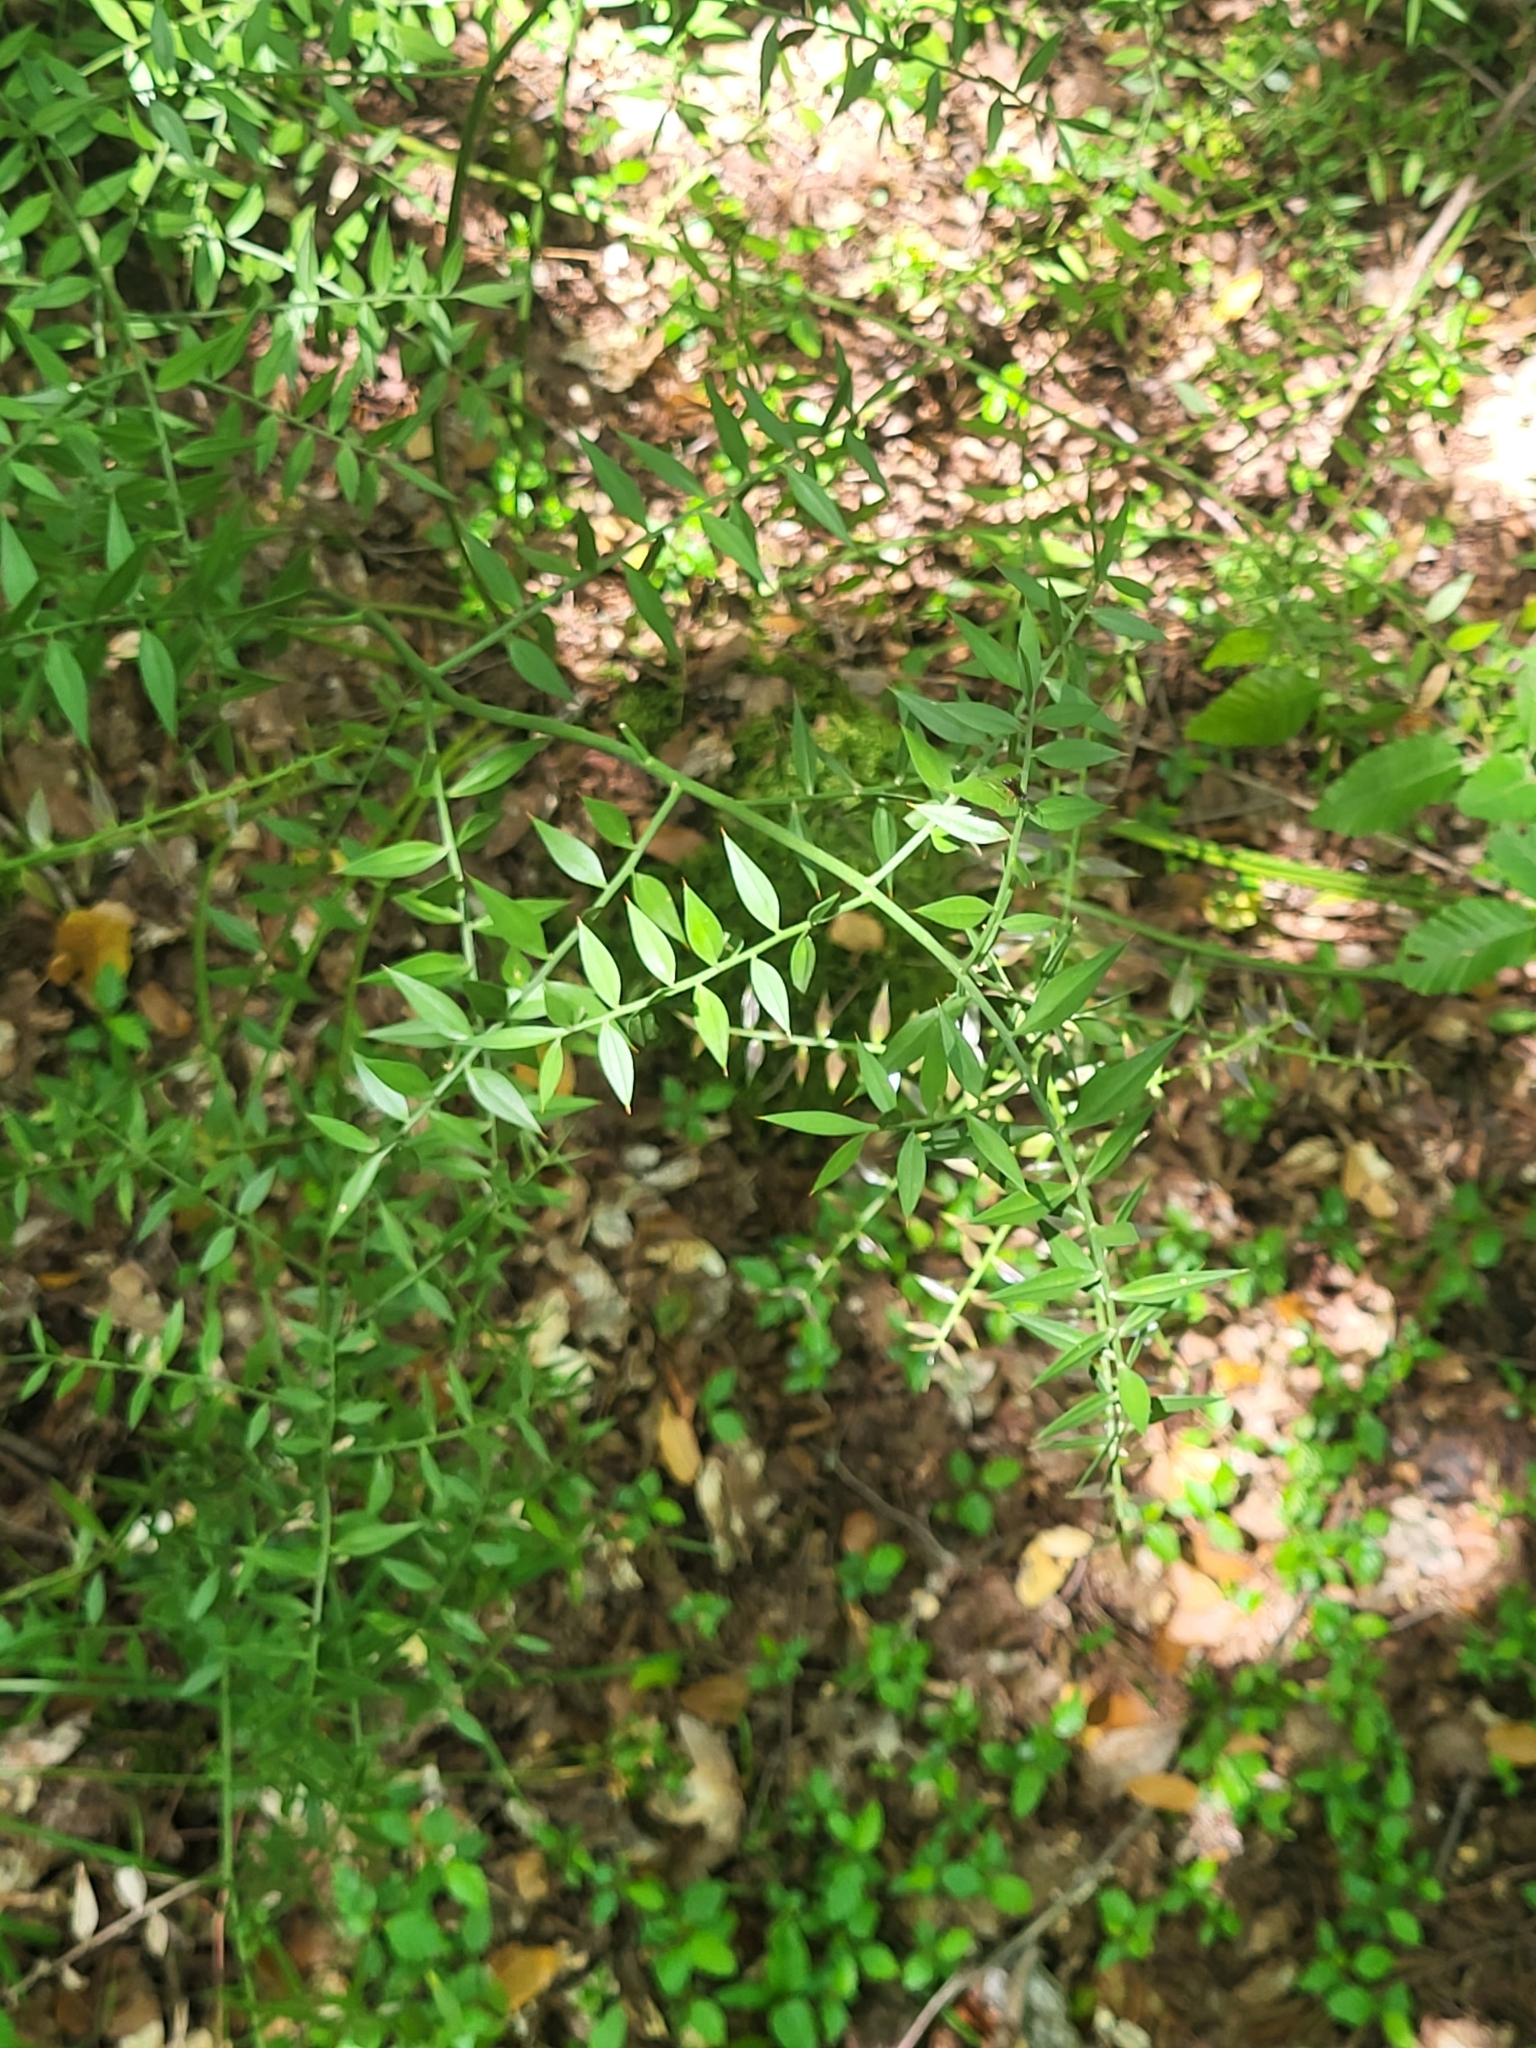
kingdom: Plantae
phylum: Tracheophyta
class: Liliopsida
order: Asparagales
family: Asparagaceae
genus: Ruscus
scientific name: Ruscus aculeatus
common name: Butcher's-broom
